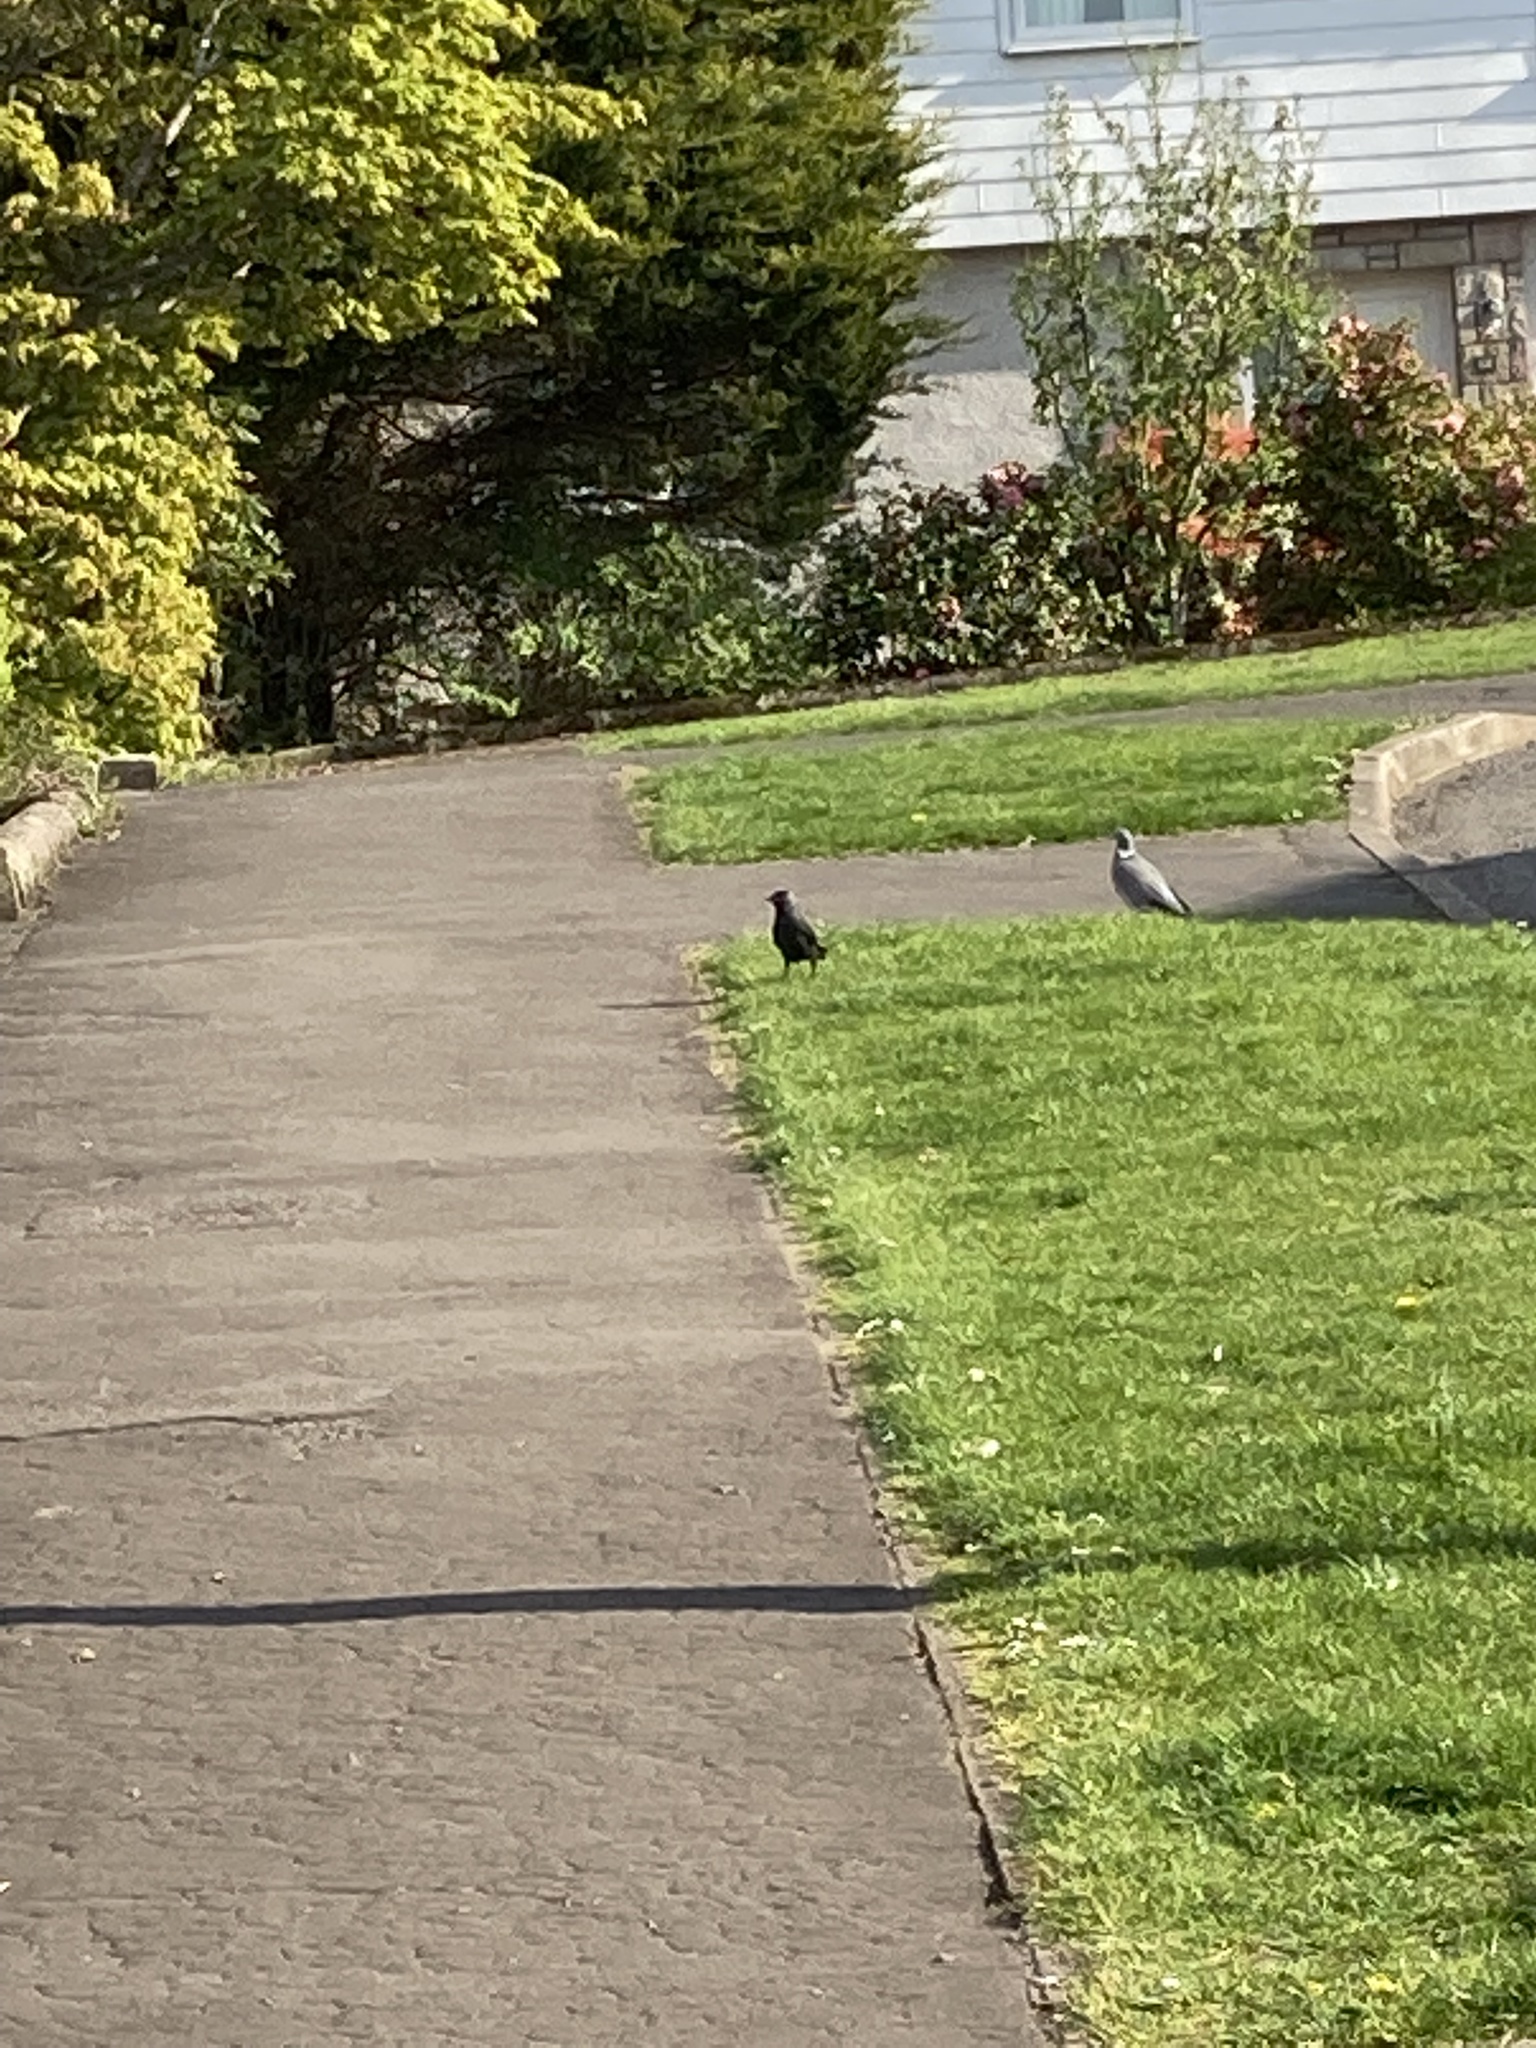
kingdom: Animalia
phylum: Chordata
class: Aves
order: Passeriformes
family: Corvidae
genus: Coloeus
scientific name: Coloeus monedula
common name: Western jackdaw
